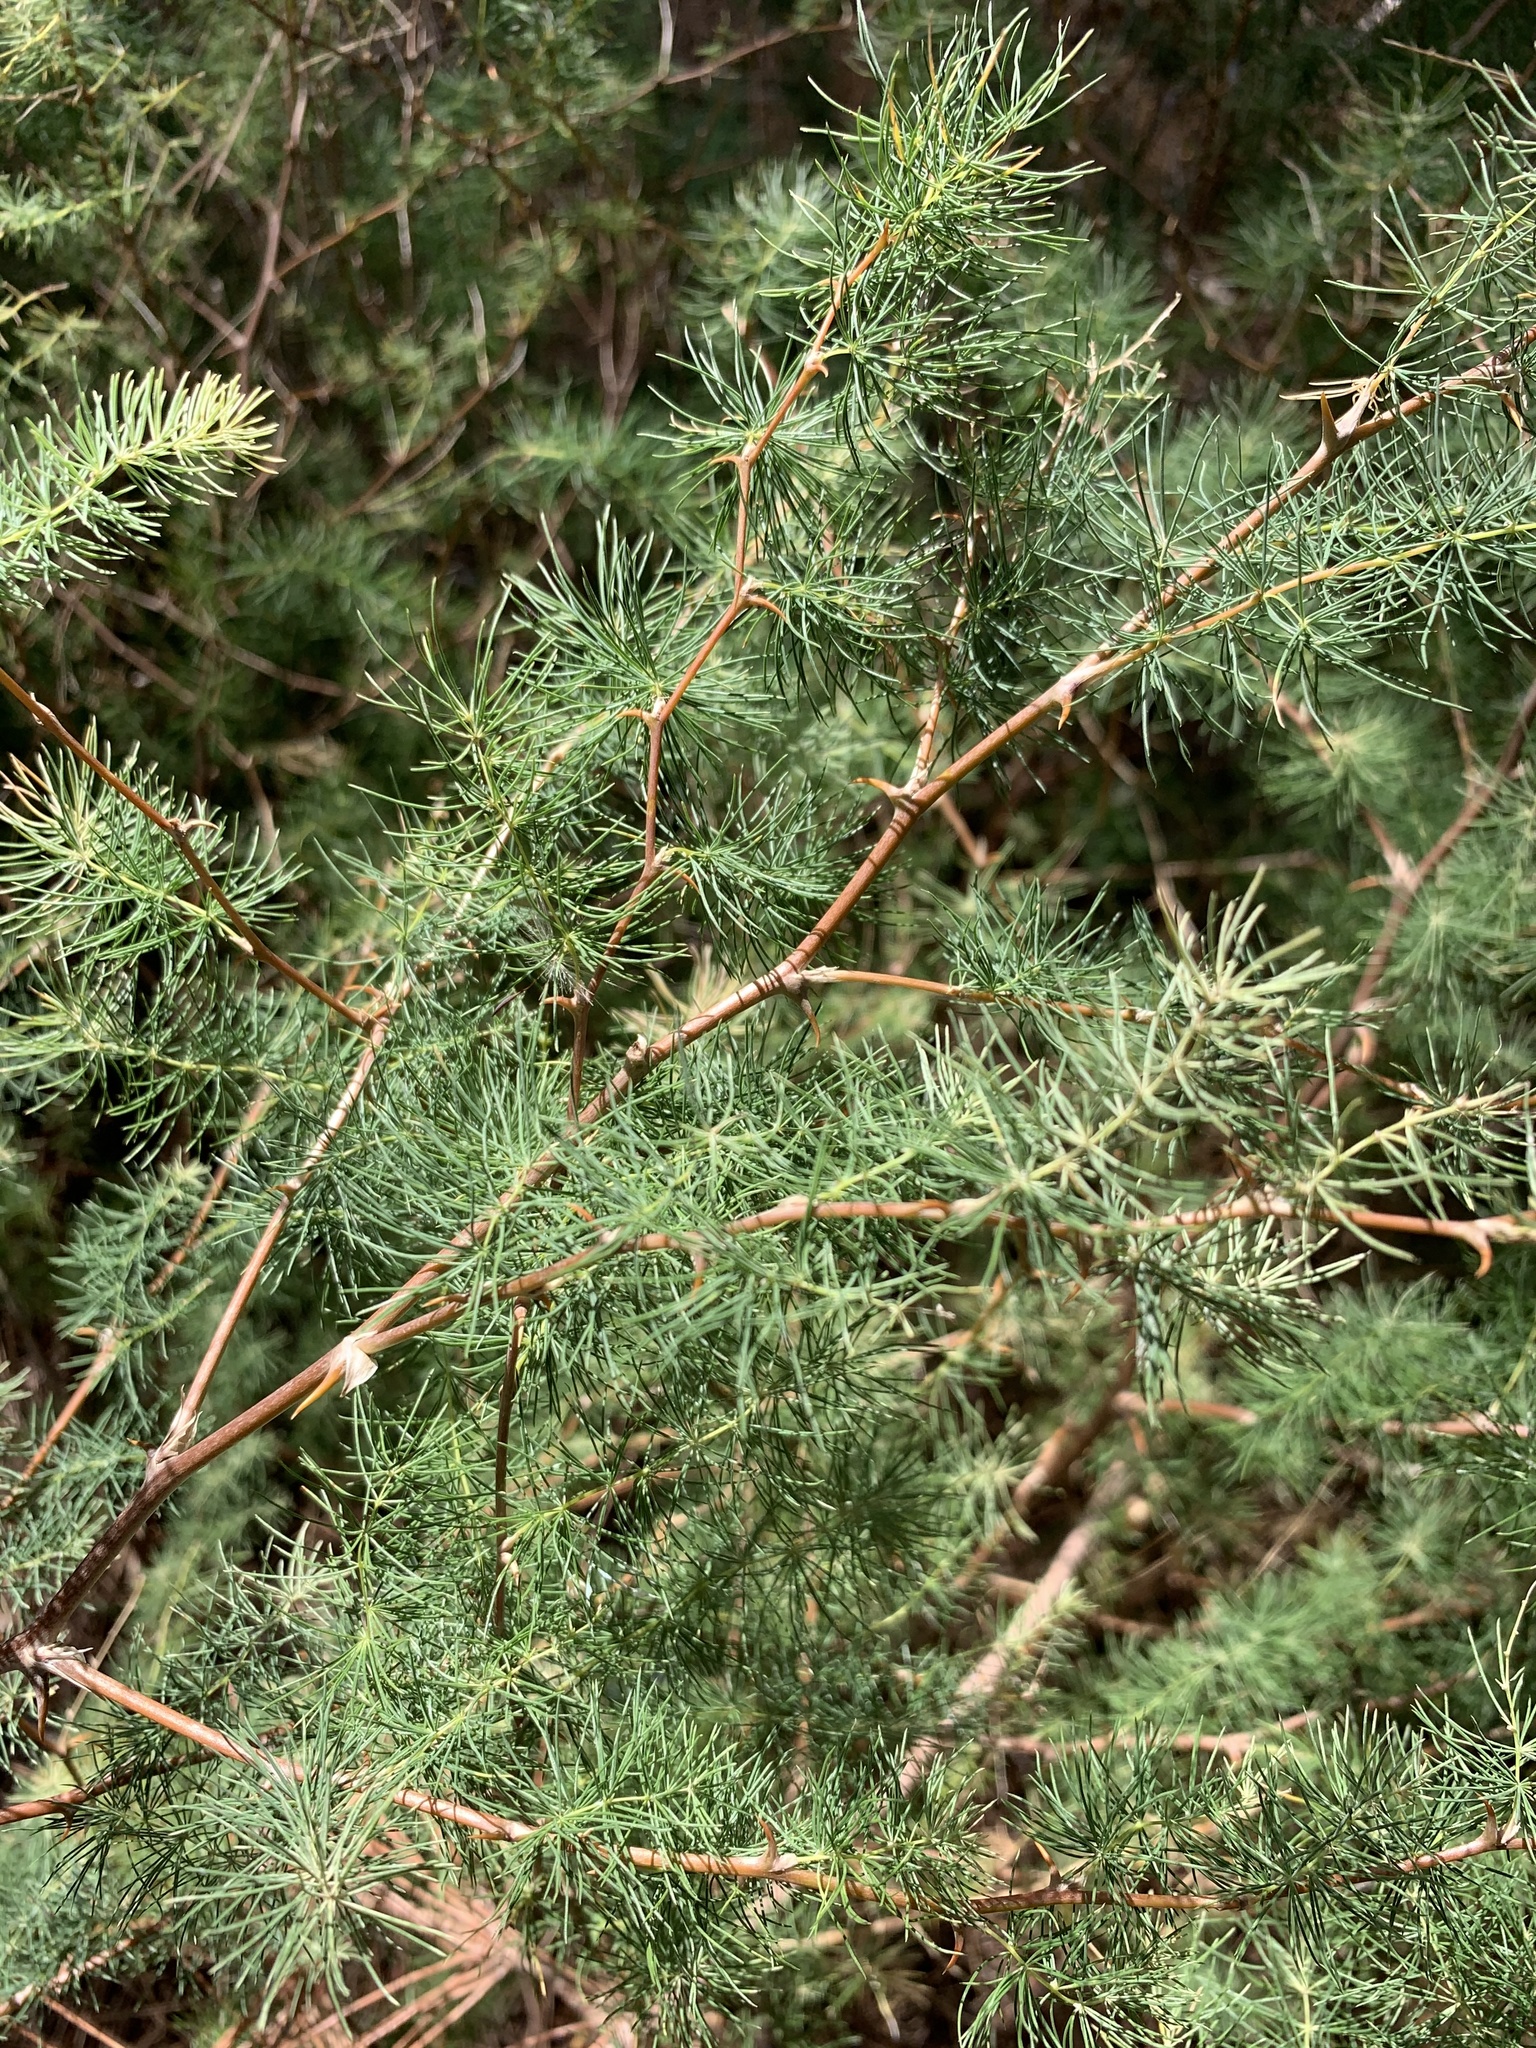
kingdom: Plantae
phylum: Tracheophyta
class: Liliopsida
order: Asparagales
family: Asparagaceae
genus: Asparagus
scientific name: Asparagus rubicundus
